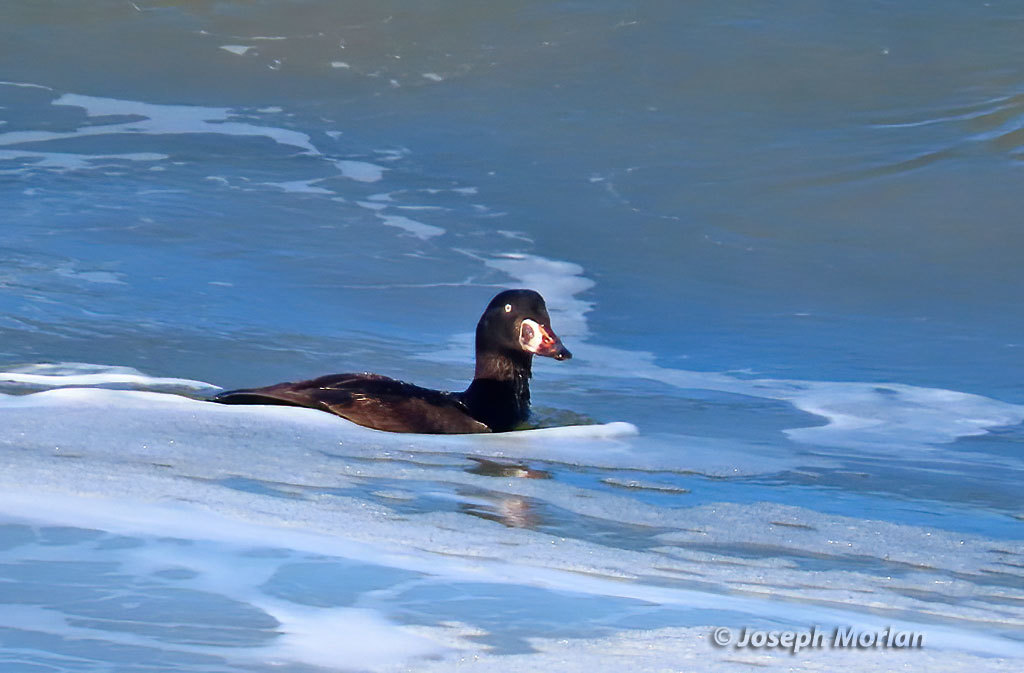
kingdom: Animalia
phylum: Chordata
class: Aves
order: Anseriformes
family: Anatidae
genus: Melanitta
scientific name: Melanitta perspicillata
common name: Surf scoter
